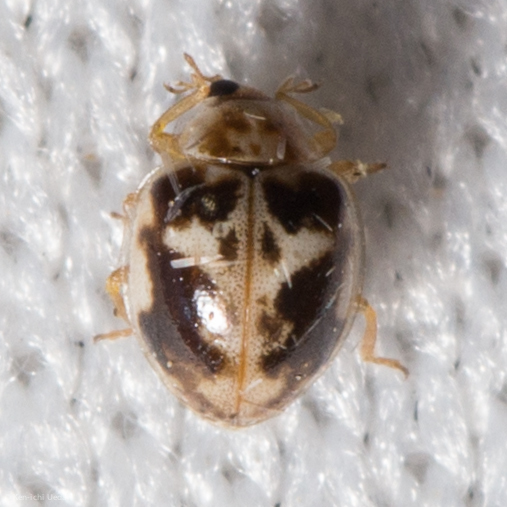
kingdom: Animalia
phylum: Arthropoda
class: Insecta
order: Coleoptera
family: Coccinellidae
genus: Psyllobora
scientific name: Psyllobora renifer
